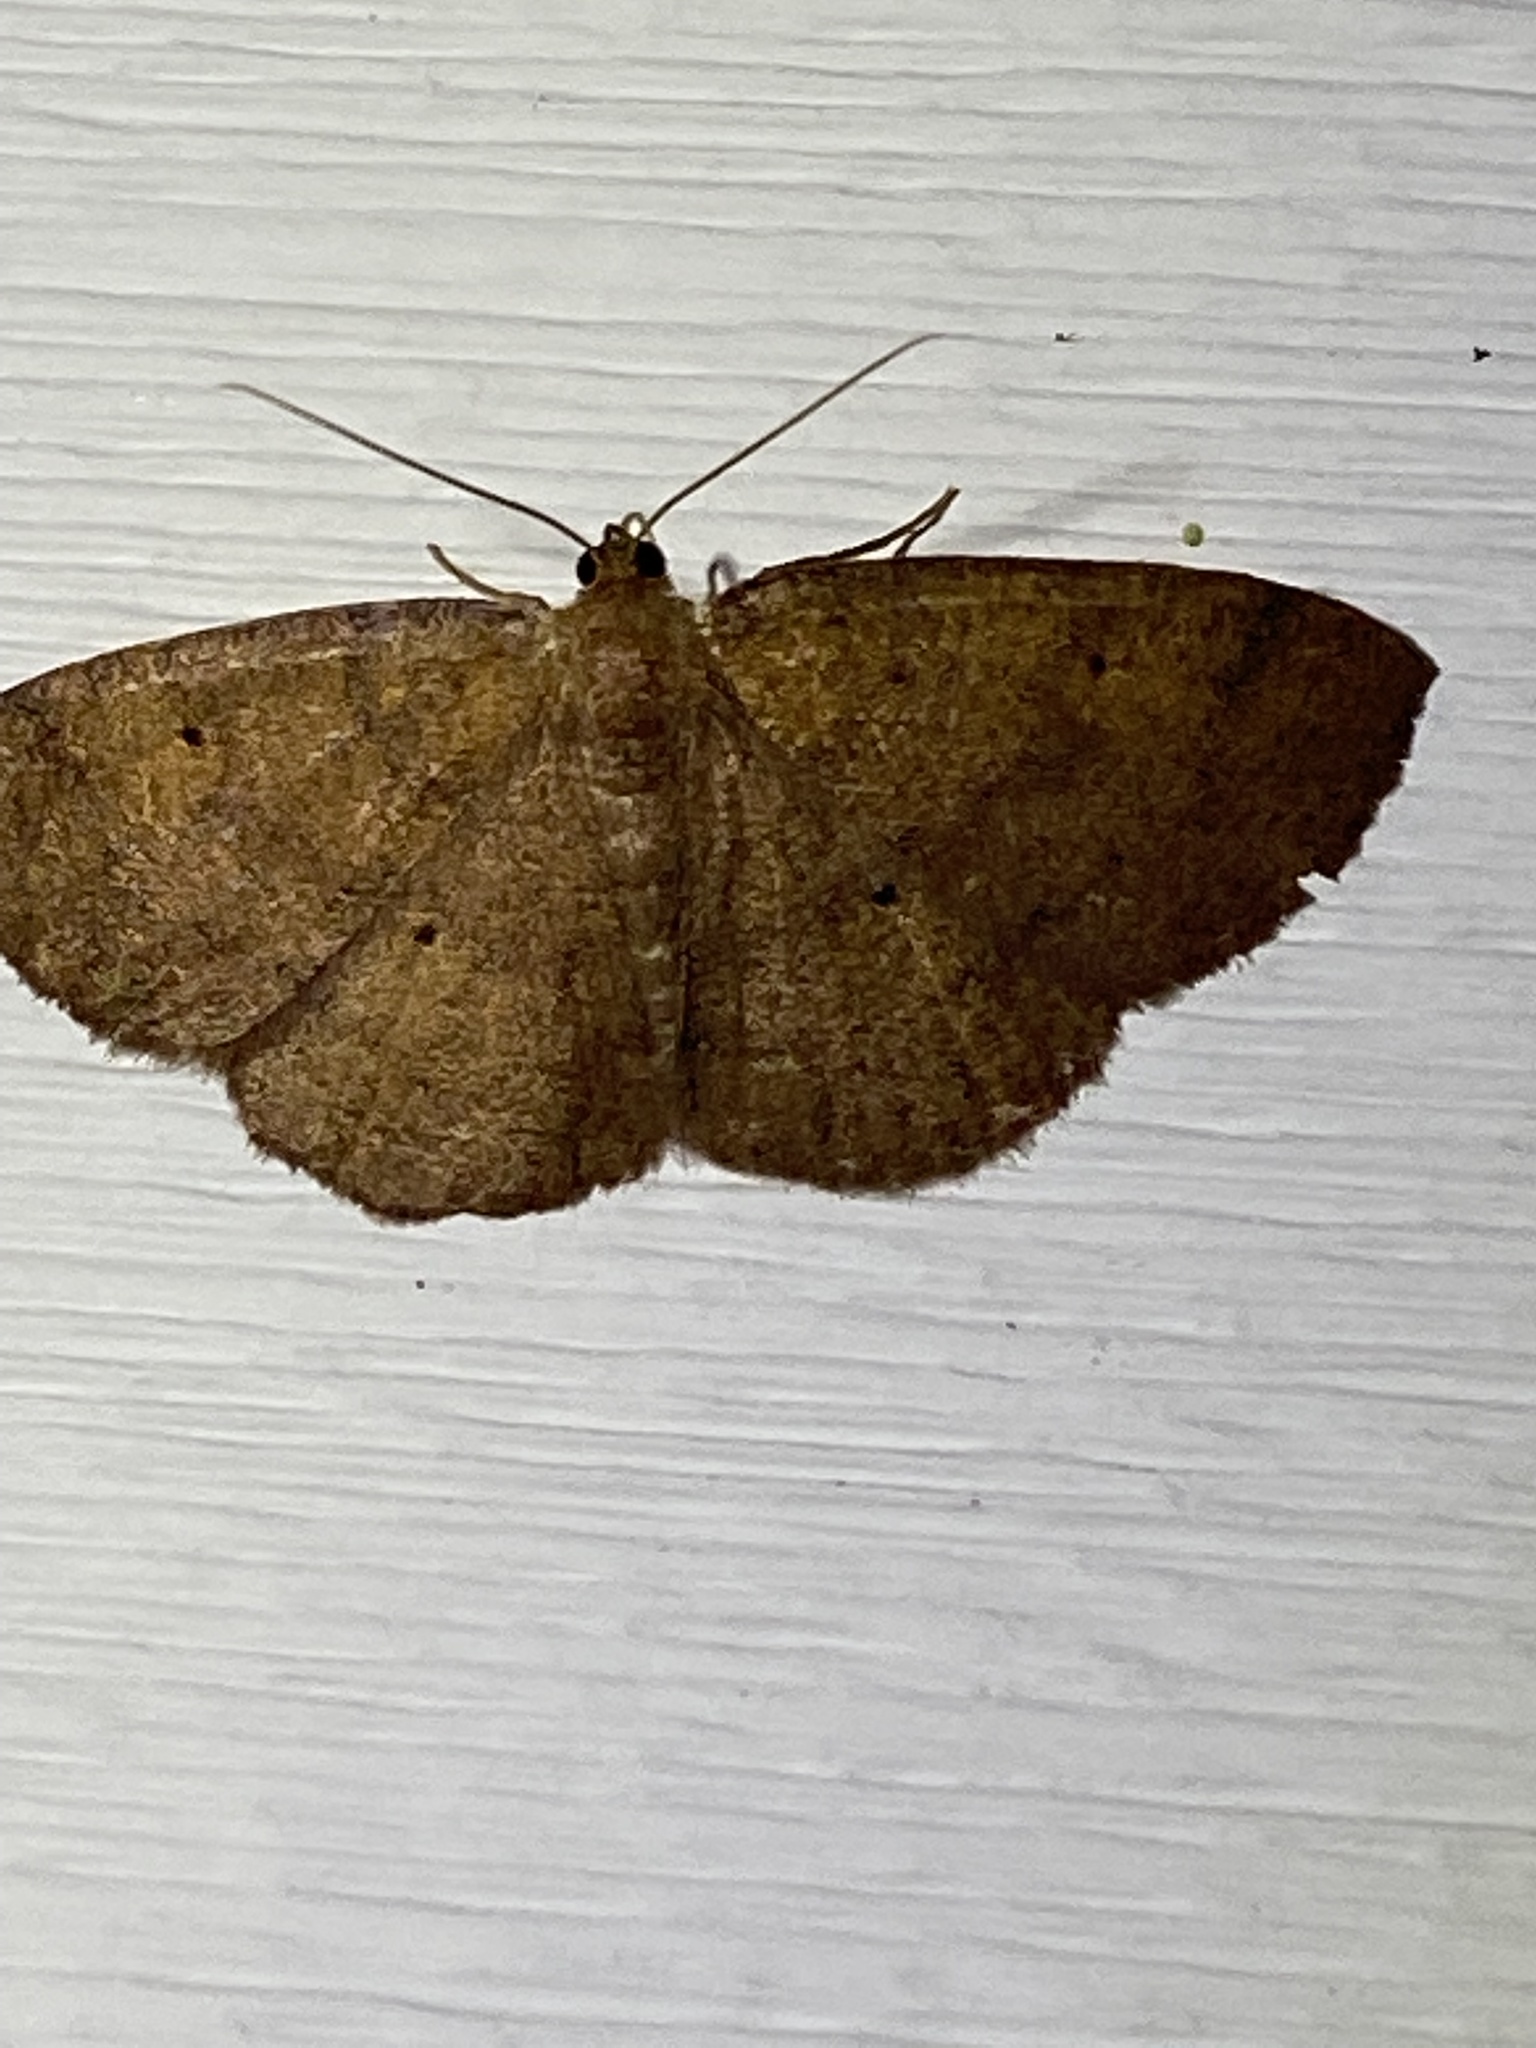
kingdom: Animalia
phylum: Arthropoda
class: Insecta
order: Lepidoptera
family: Geometridae
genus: Ilexia
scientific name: Ilexia intractata
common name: Black-dotted ruddy moth
